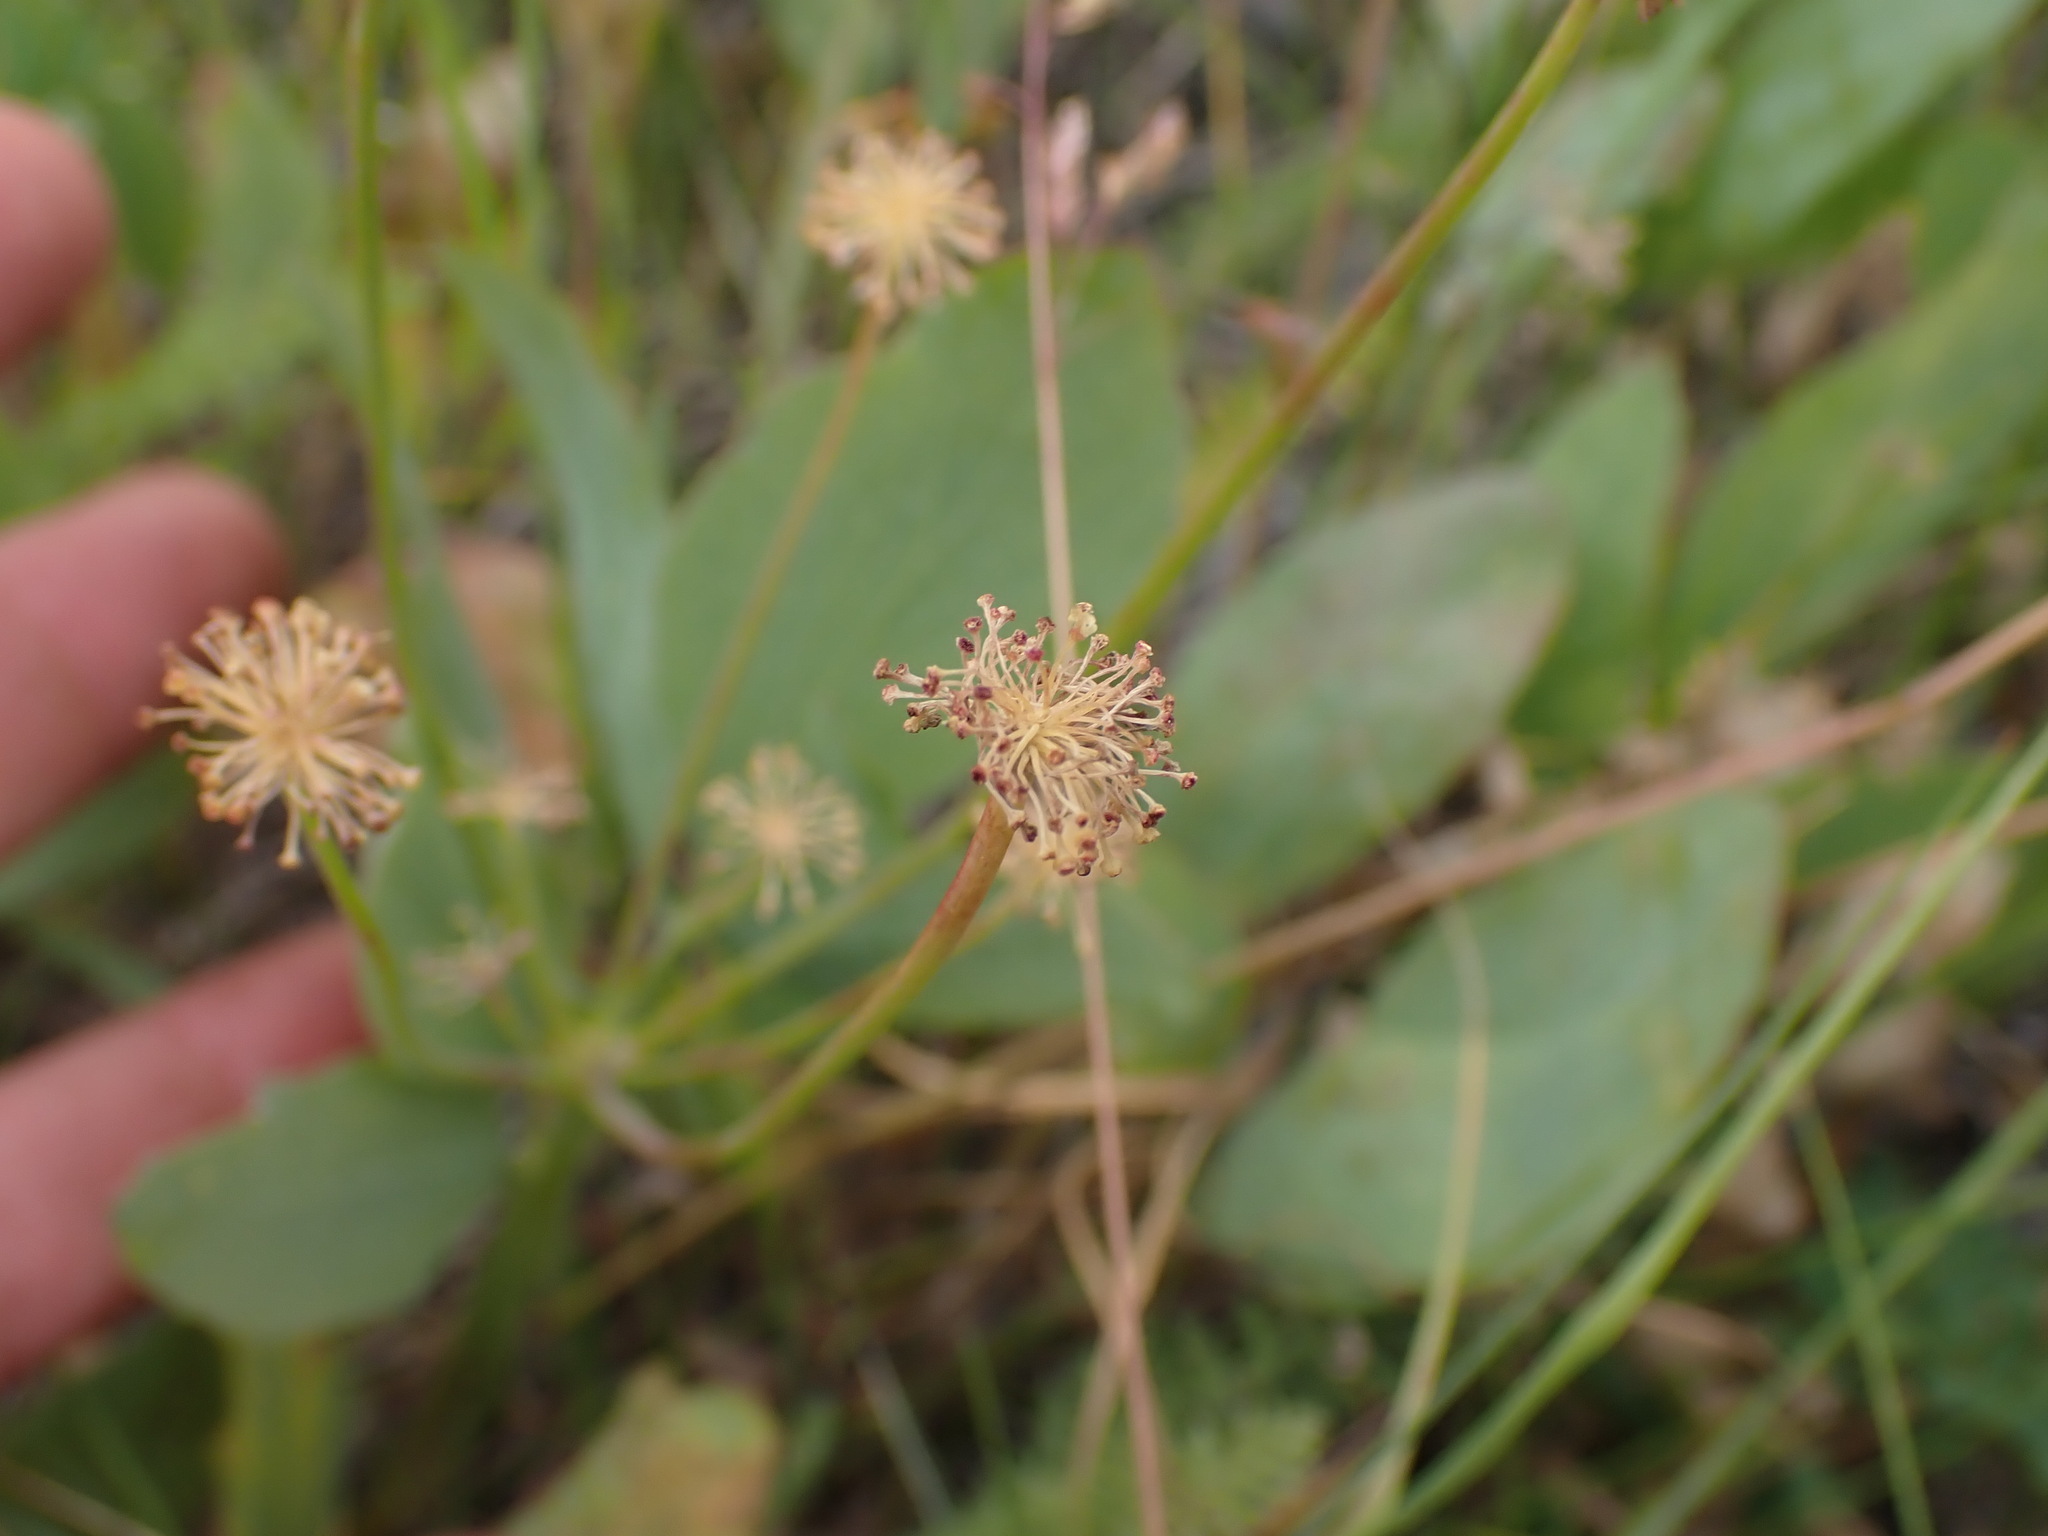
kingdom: Plantae
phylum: Tracheophyta
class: Magnoliopsida
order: Apiales
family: Apiaceae
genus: Lomatium
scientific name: Lomatium nudicaule
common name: Pestle lomatium
